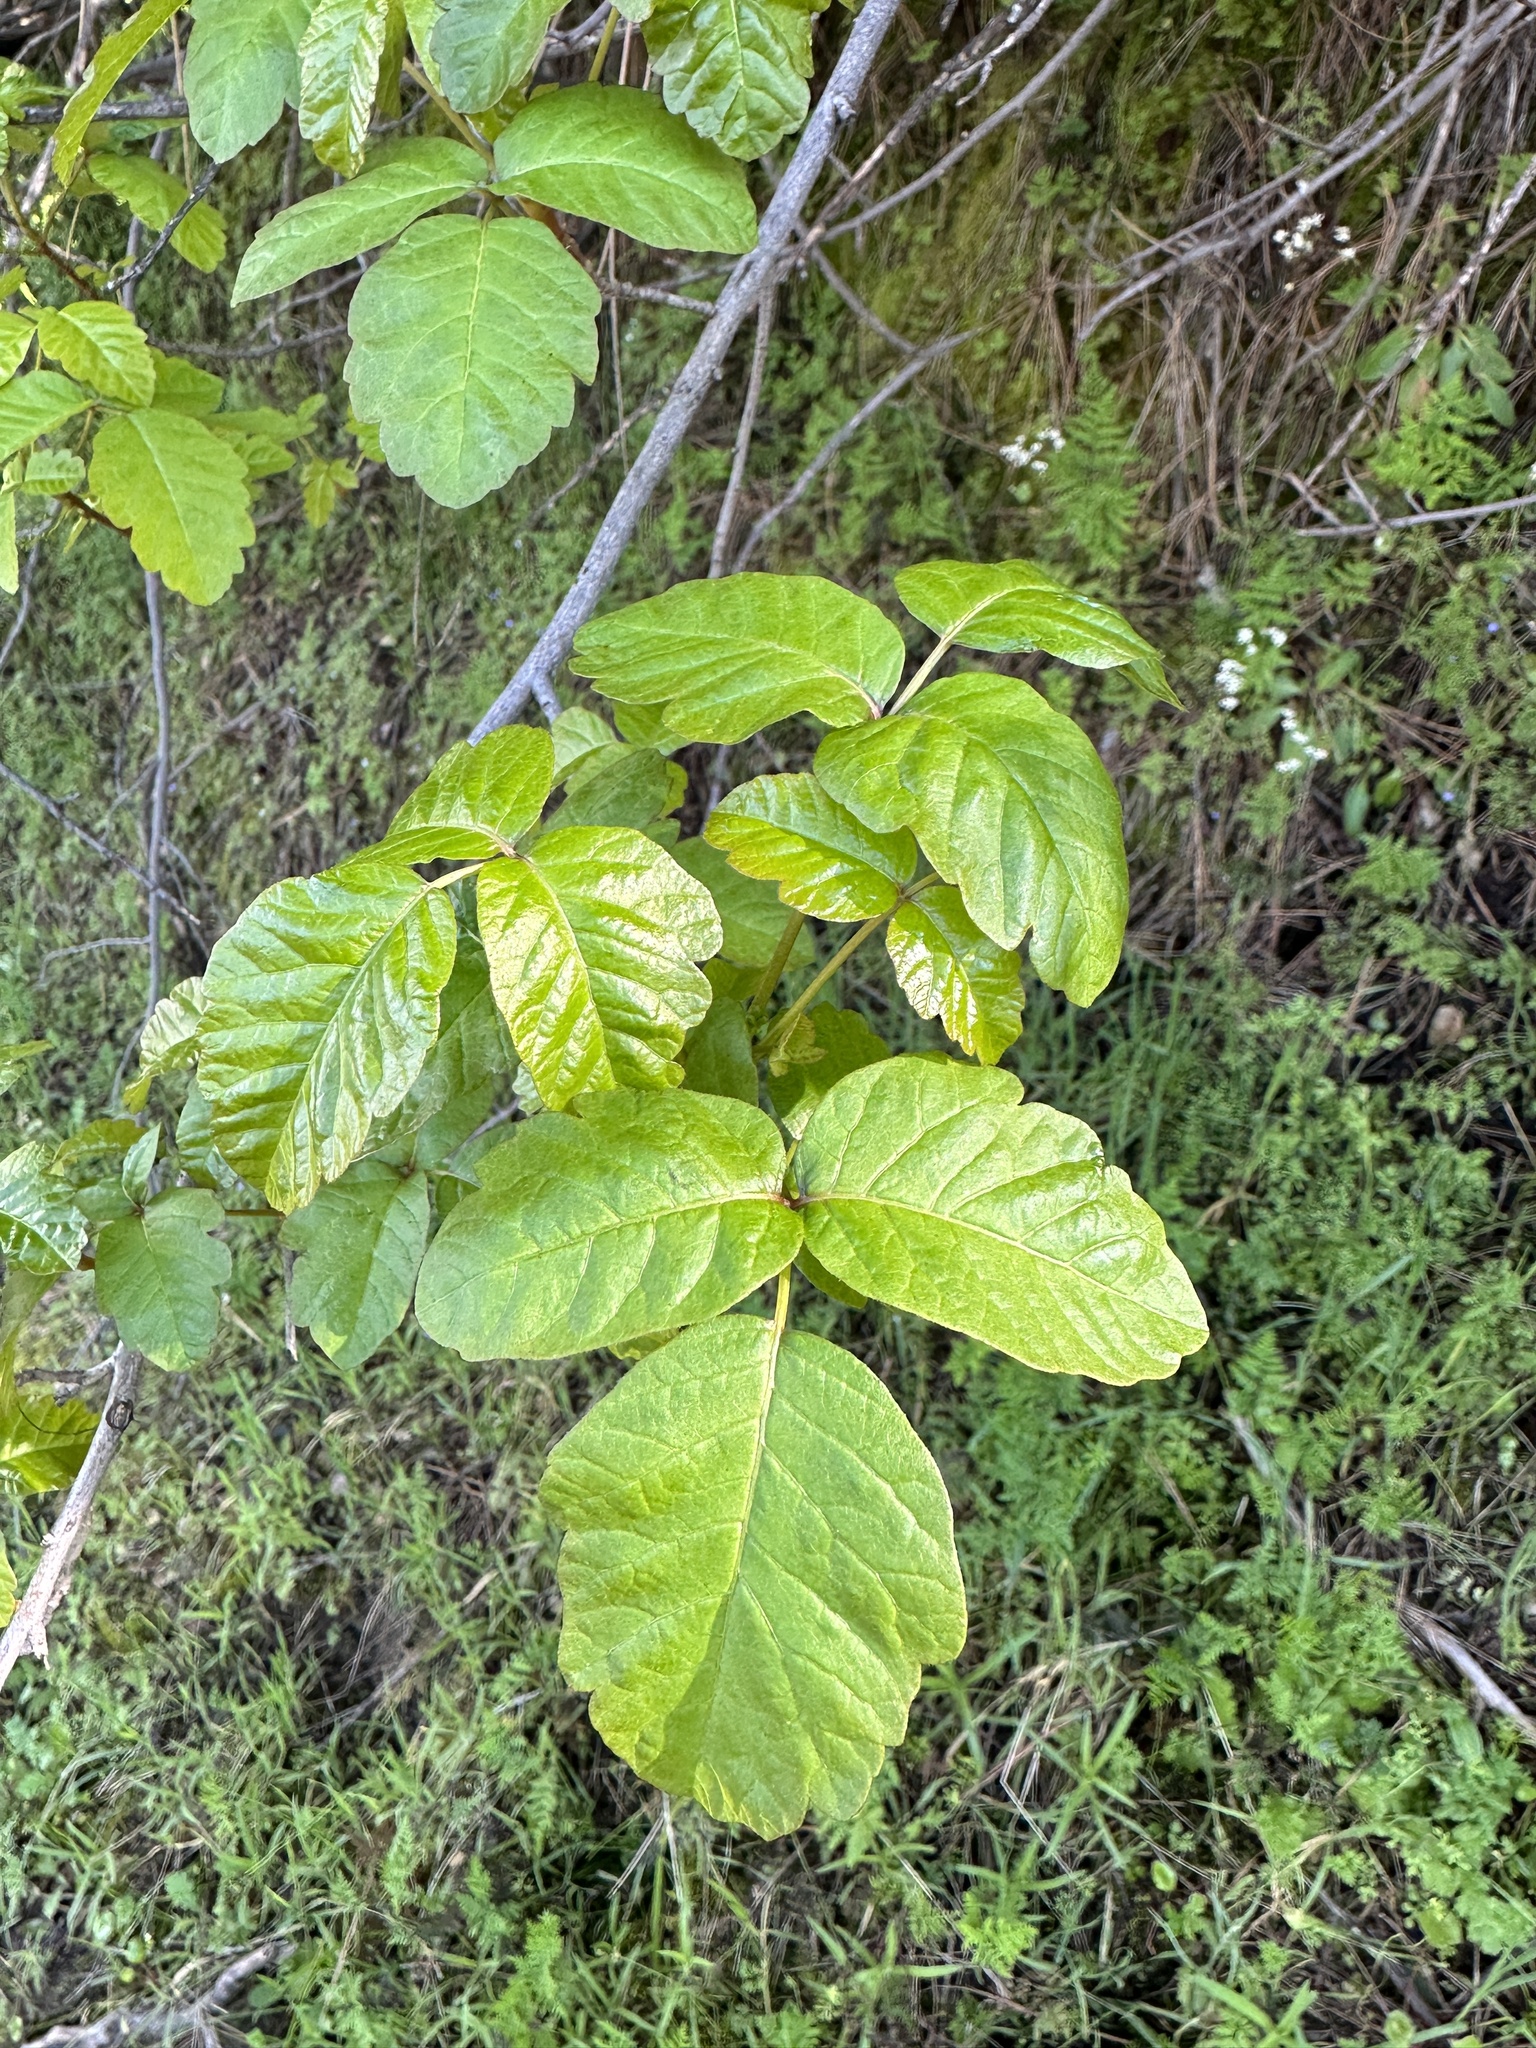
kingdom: Plantae
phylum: Tracheophyta
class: Magnoliopsida
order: Sapindales
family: Anacardiaceae
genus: Toxicodendron
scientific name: Toxicodendron diversilobum
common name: Pacific poison-oak
